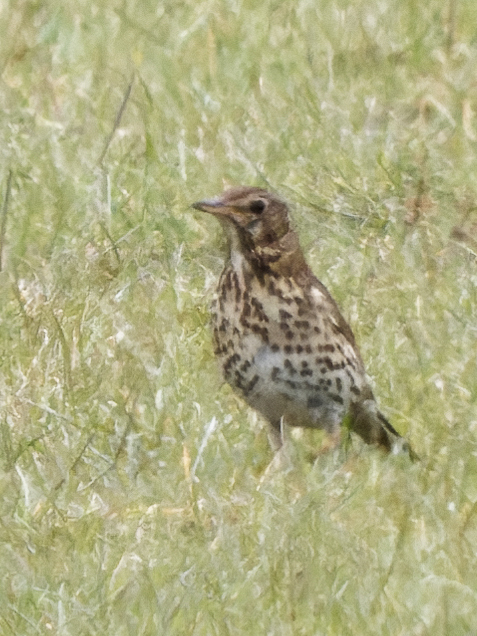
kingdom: Animalia
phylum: Chordata
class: Aves
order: Passeriformes
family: Turdidae
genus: Turdus
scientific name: Turdus philomelos
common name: Song thrush
